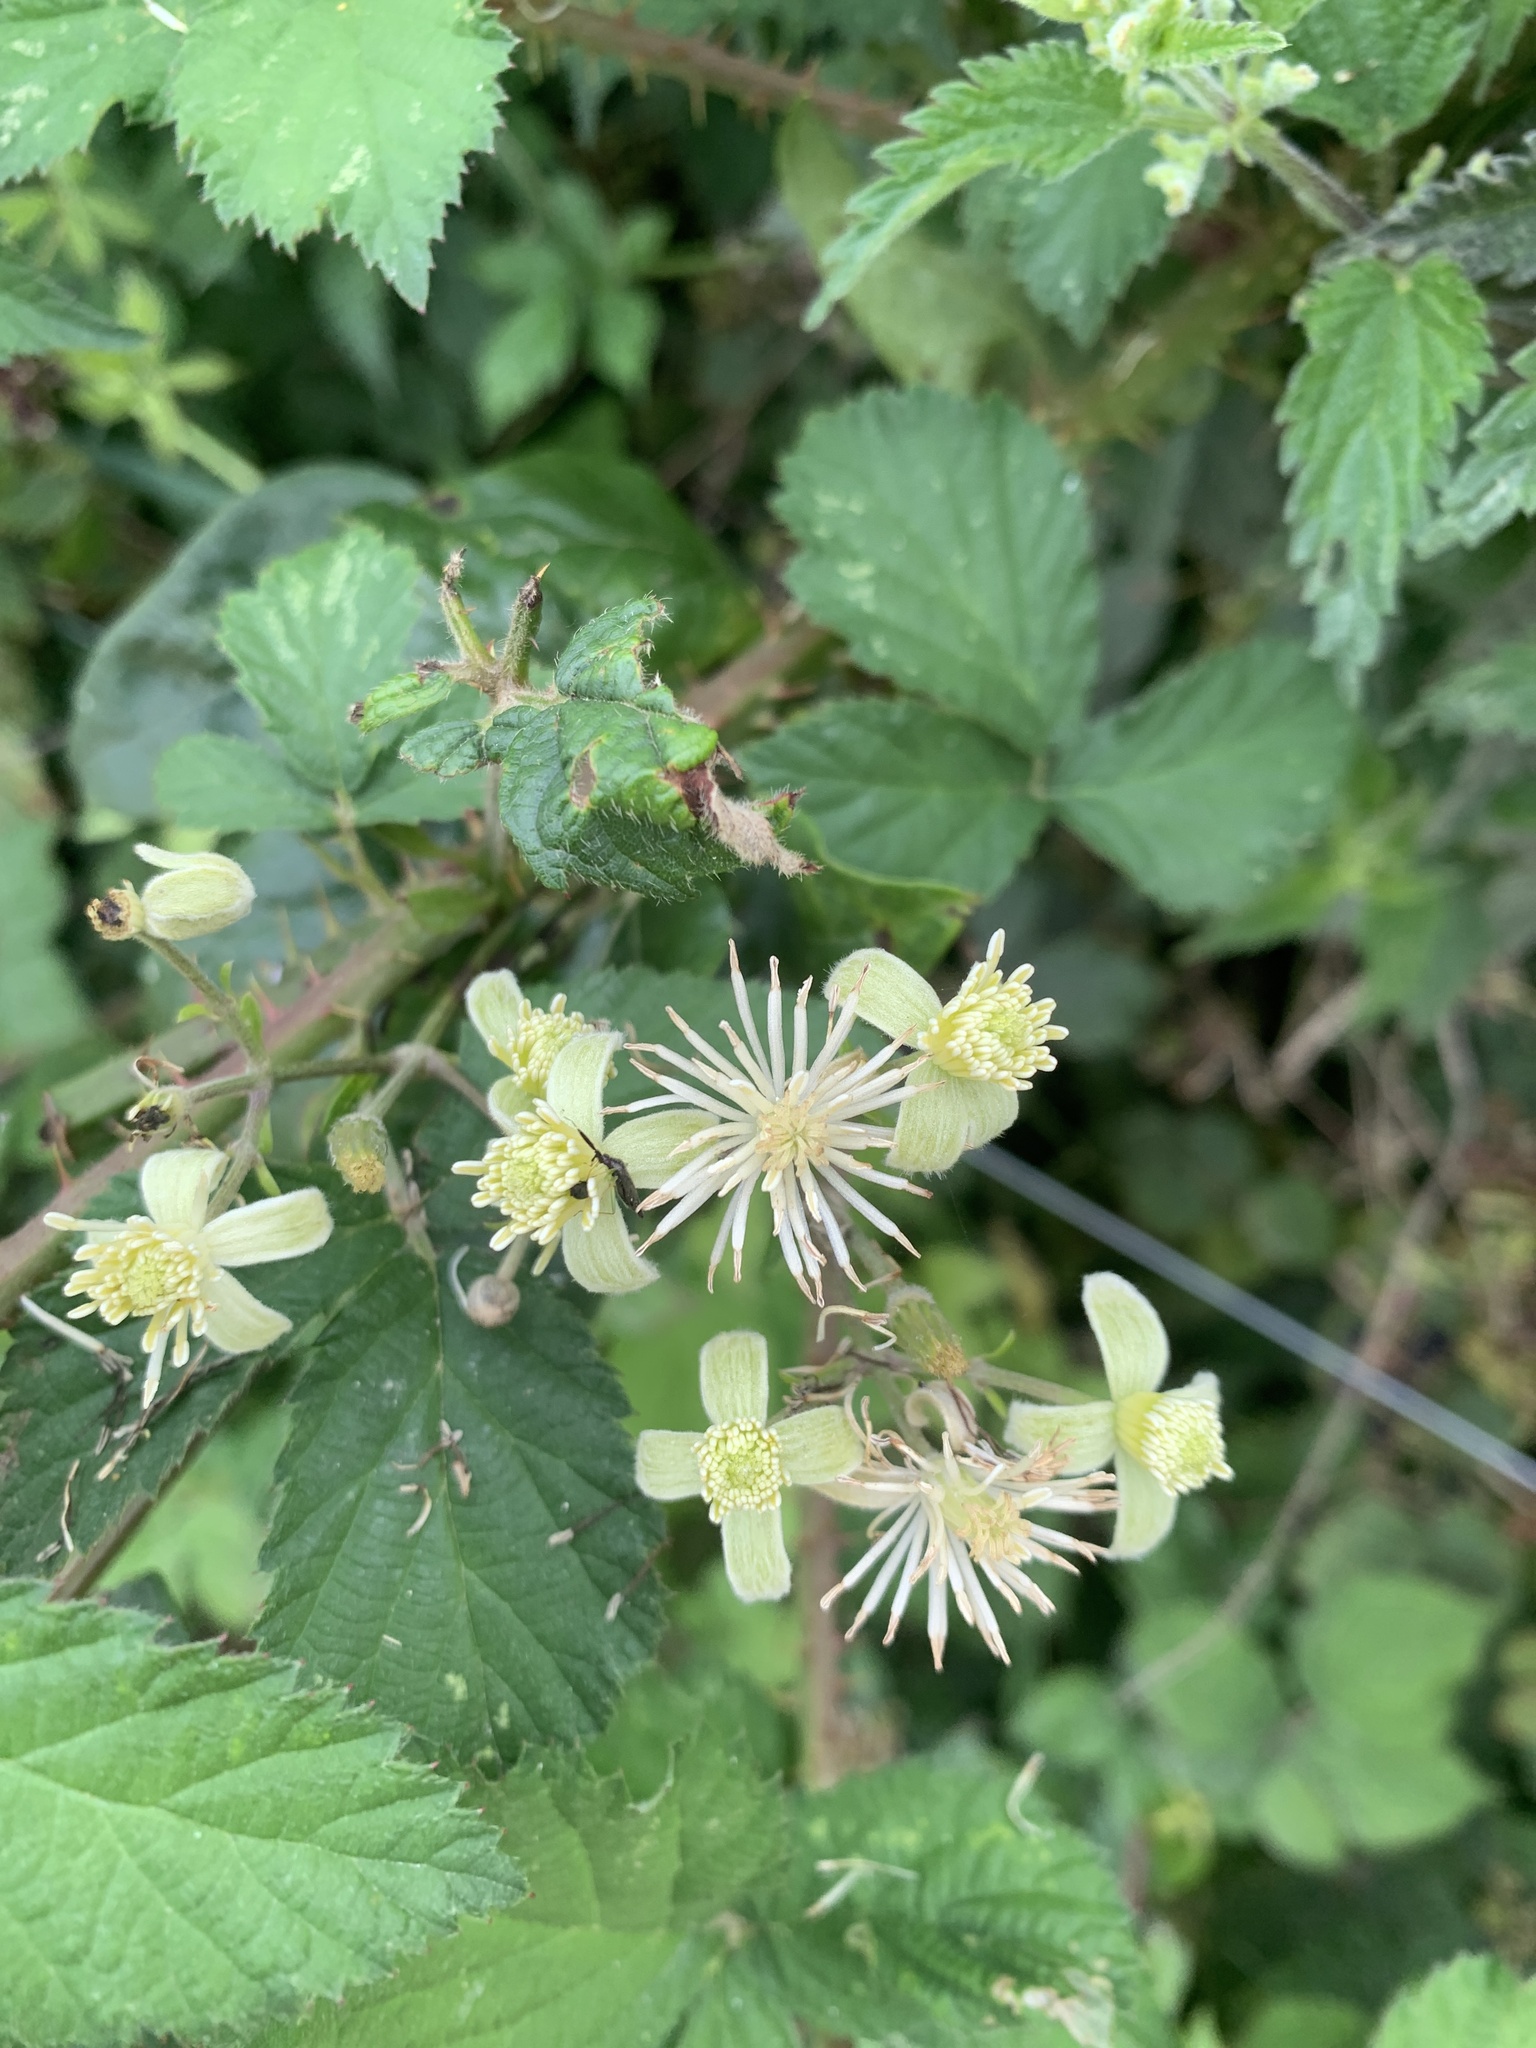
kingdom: Plantae
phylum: Tracheophyta
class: Magnoliopsida
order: Ranunculales
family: Ranunculaceae
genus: Clematis
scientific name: Clematis vitalba
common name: Evergreen clematis
